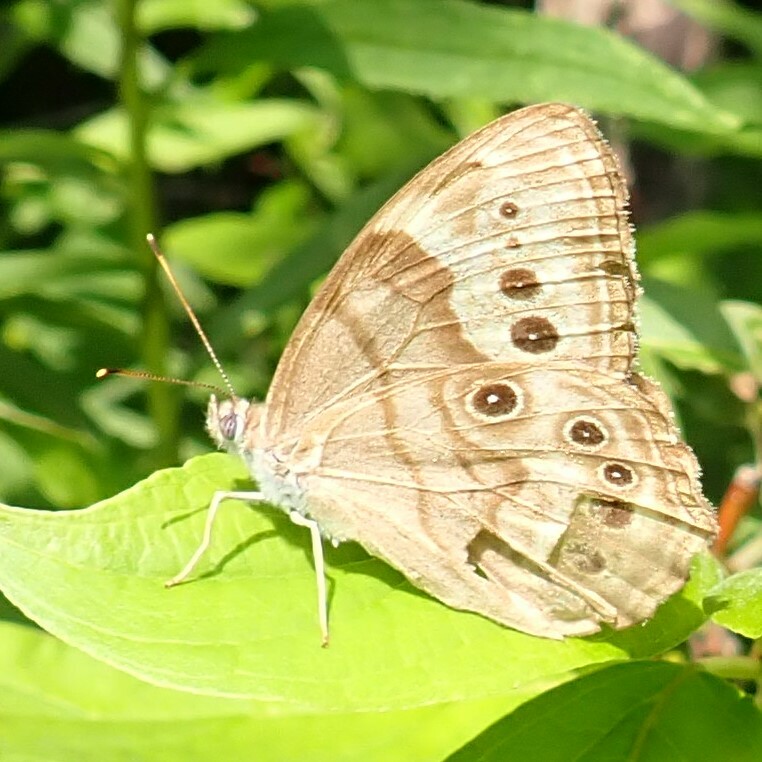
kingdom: Animalia
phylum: Arthropoda
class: Insecta
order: Lepidoptera
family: Nymphalidae
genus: Lethe
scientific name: Lethe anthedon
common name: Northern pearly-eye
